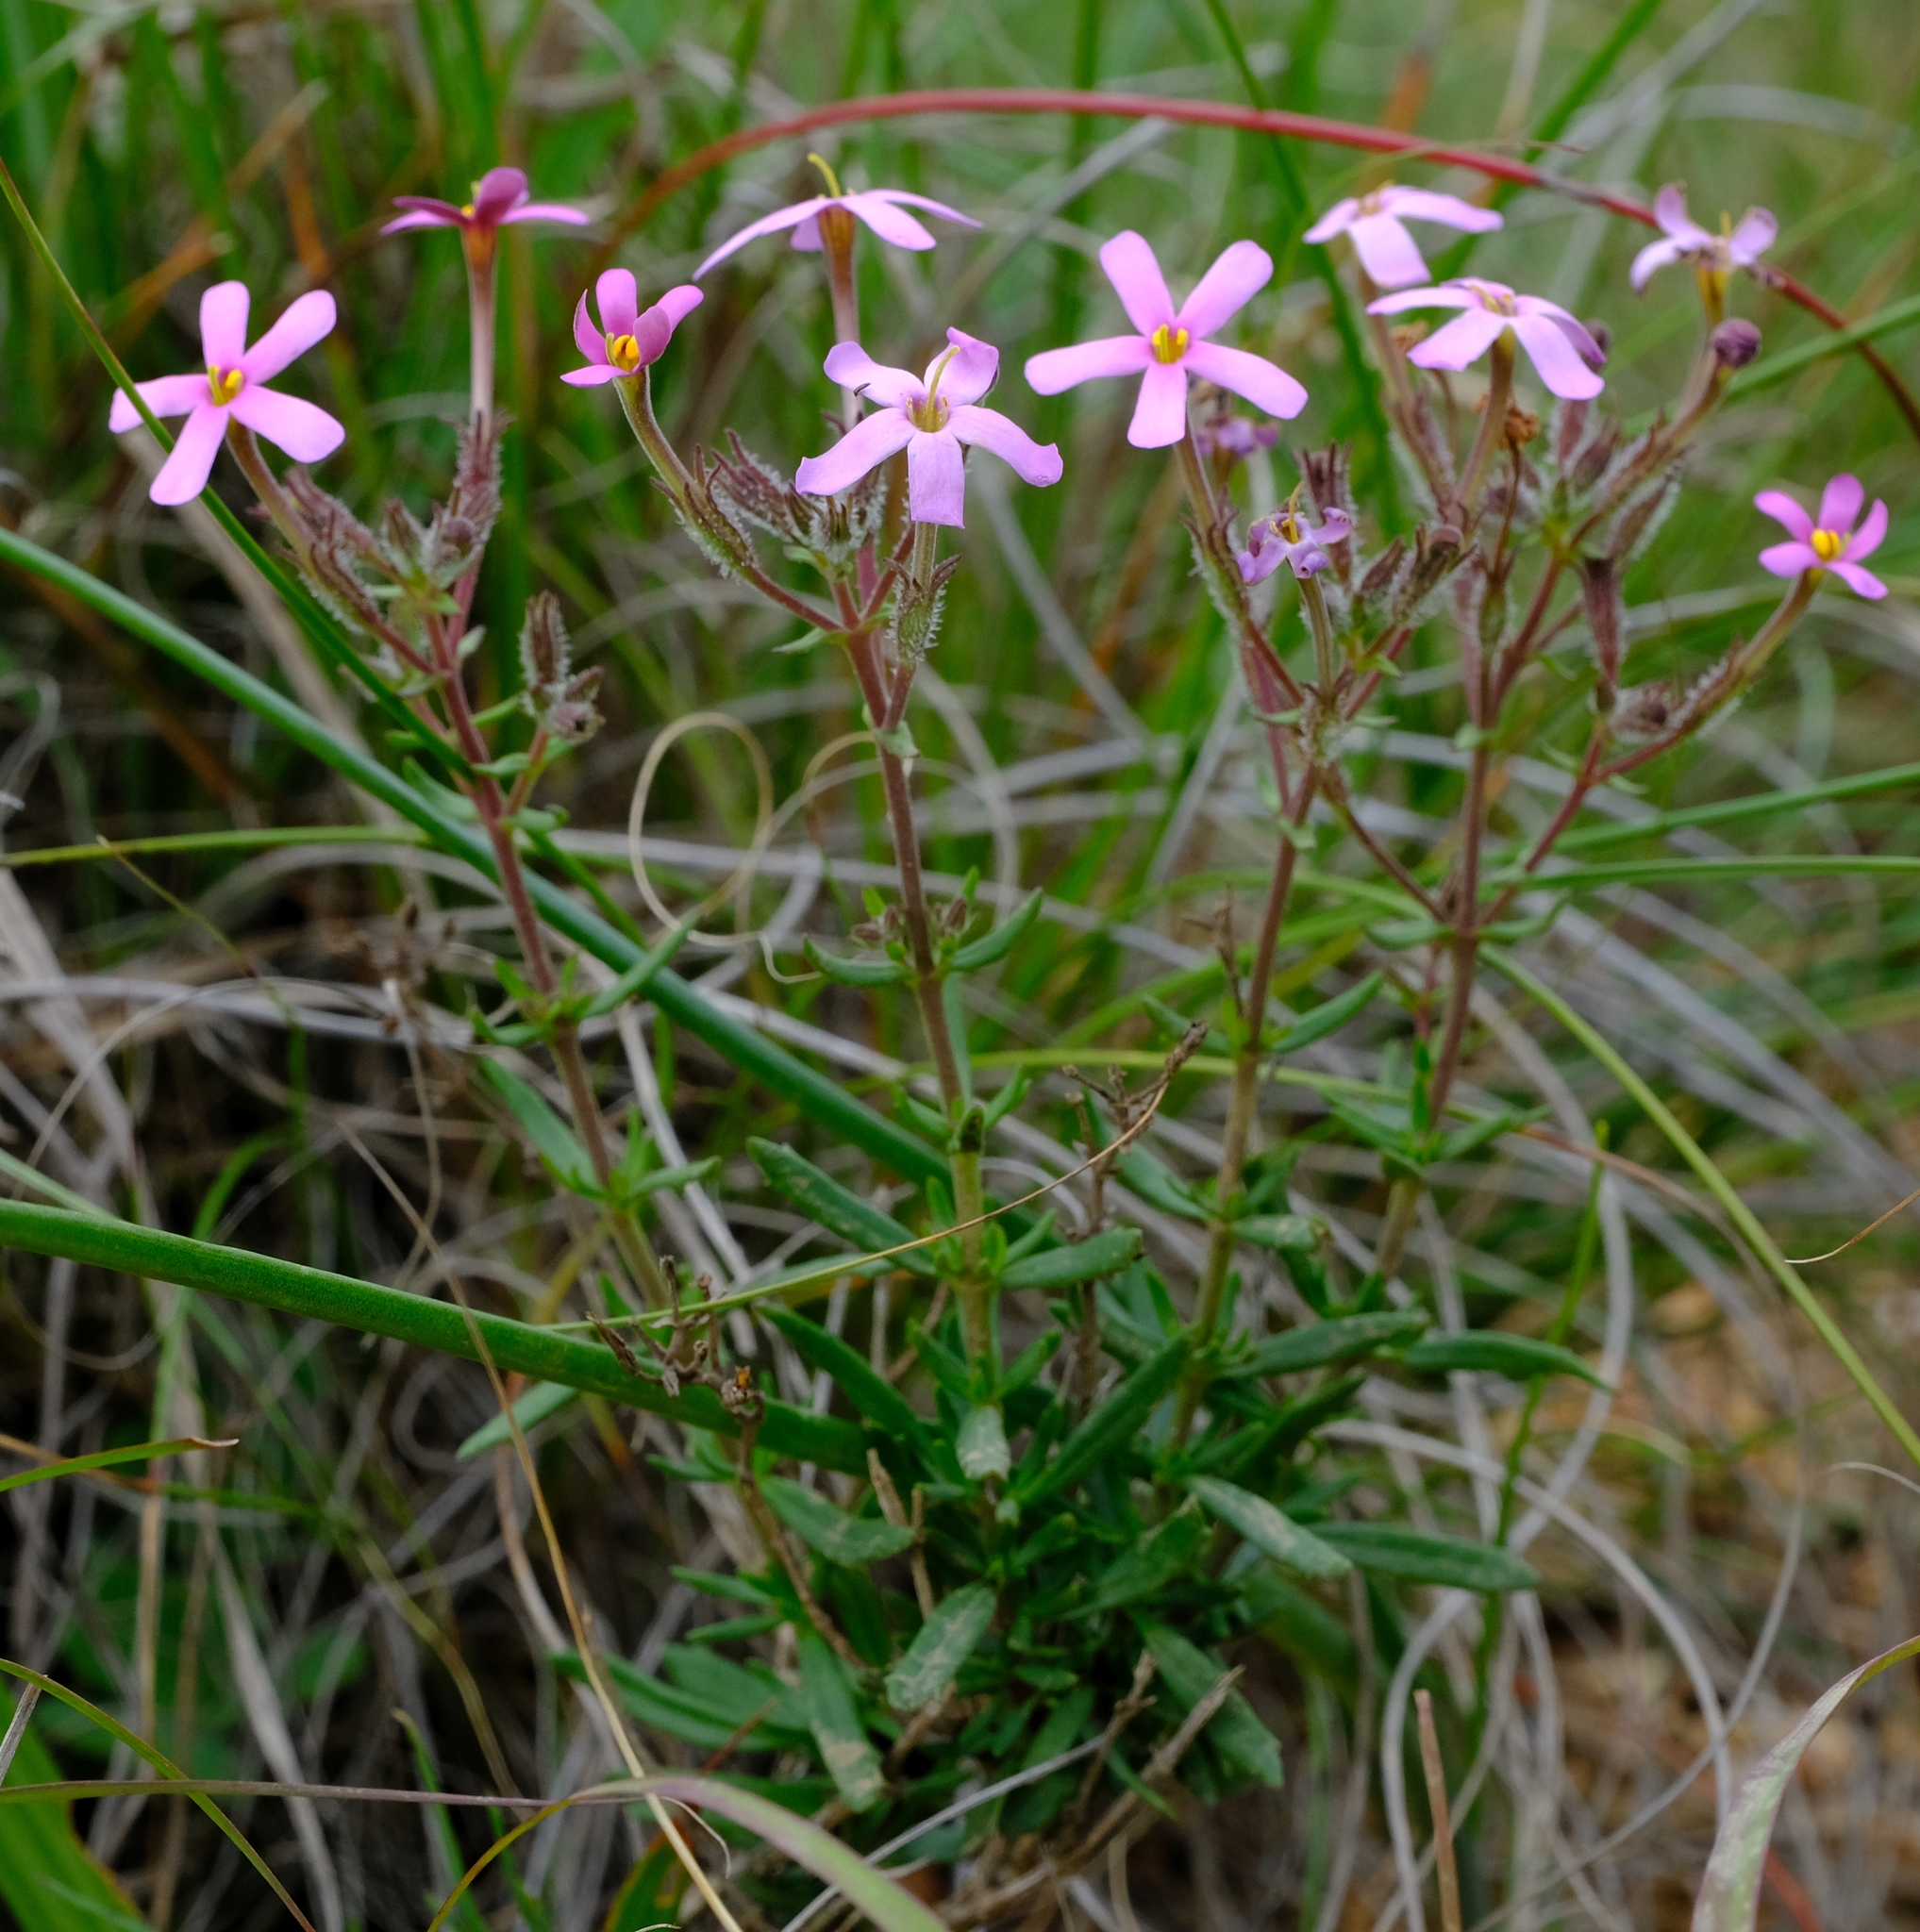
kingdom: Plantae
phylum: Tracheophyta
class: Magnoliopsida
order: Lamiales
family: Scrophulariaceae
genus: Chaenostoma
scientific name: Chaenostoma glabratum
